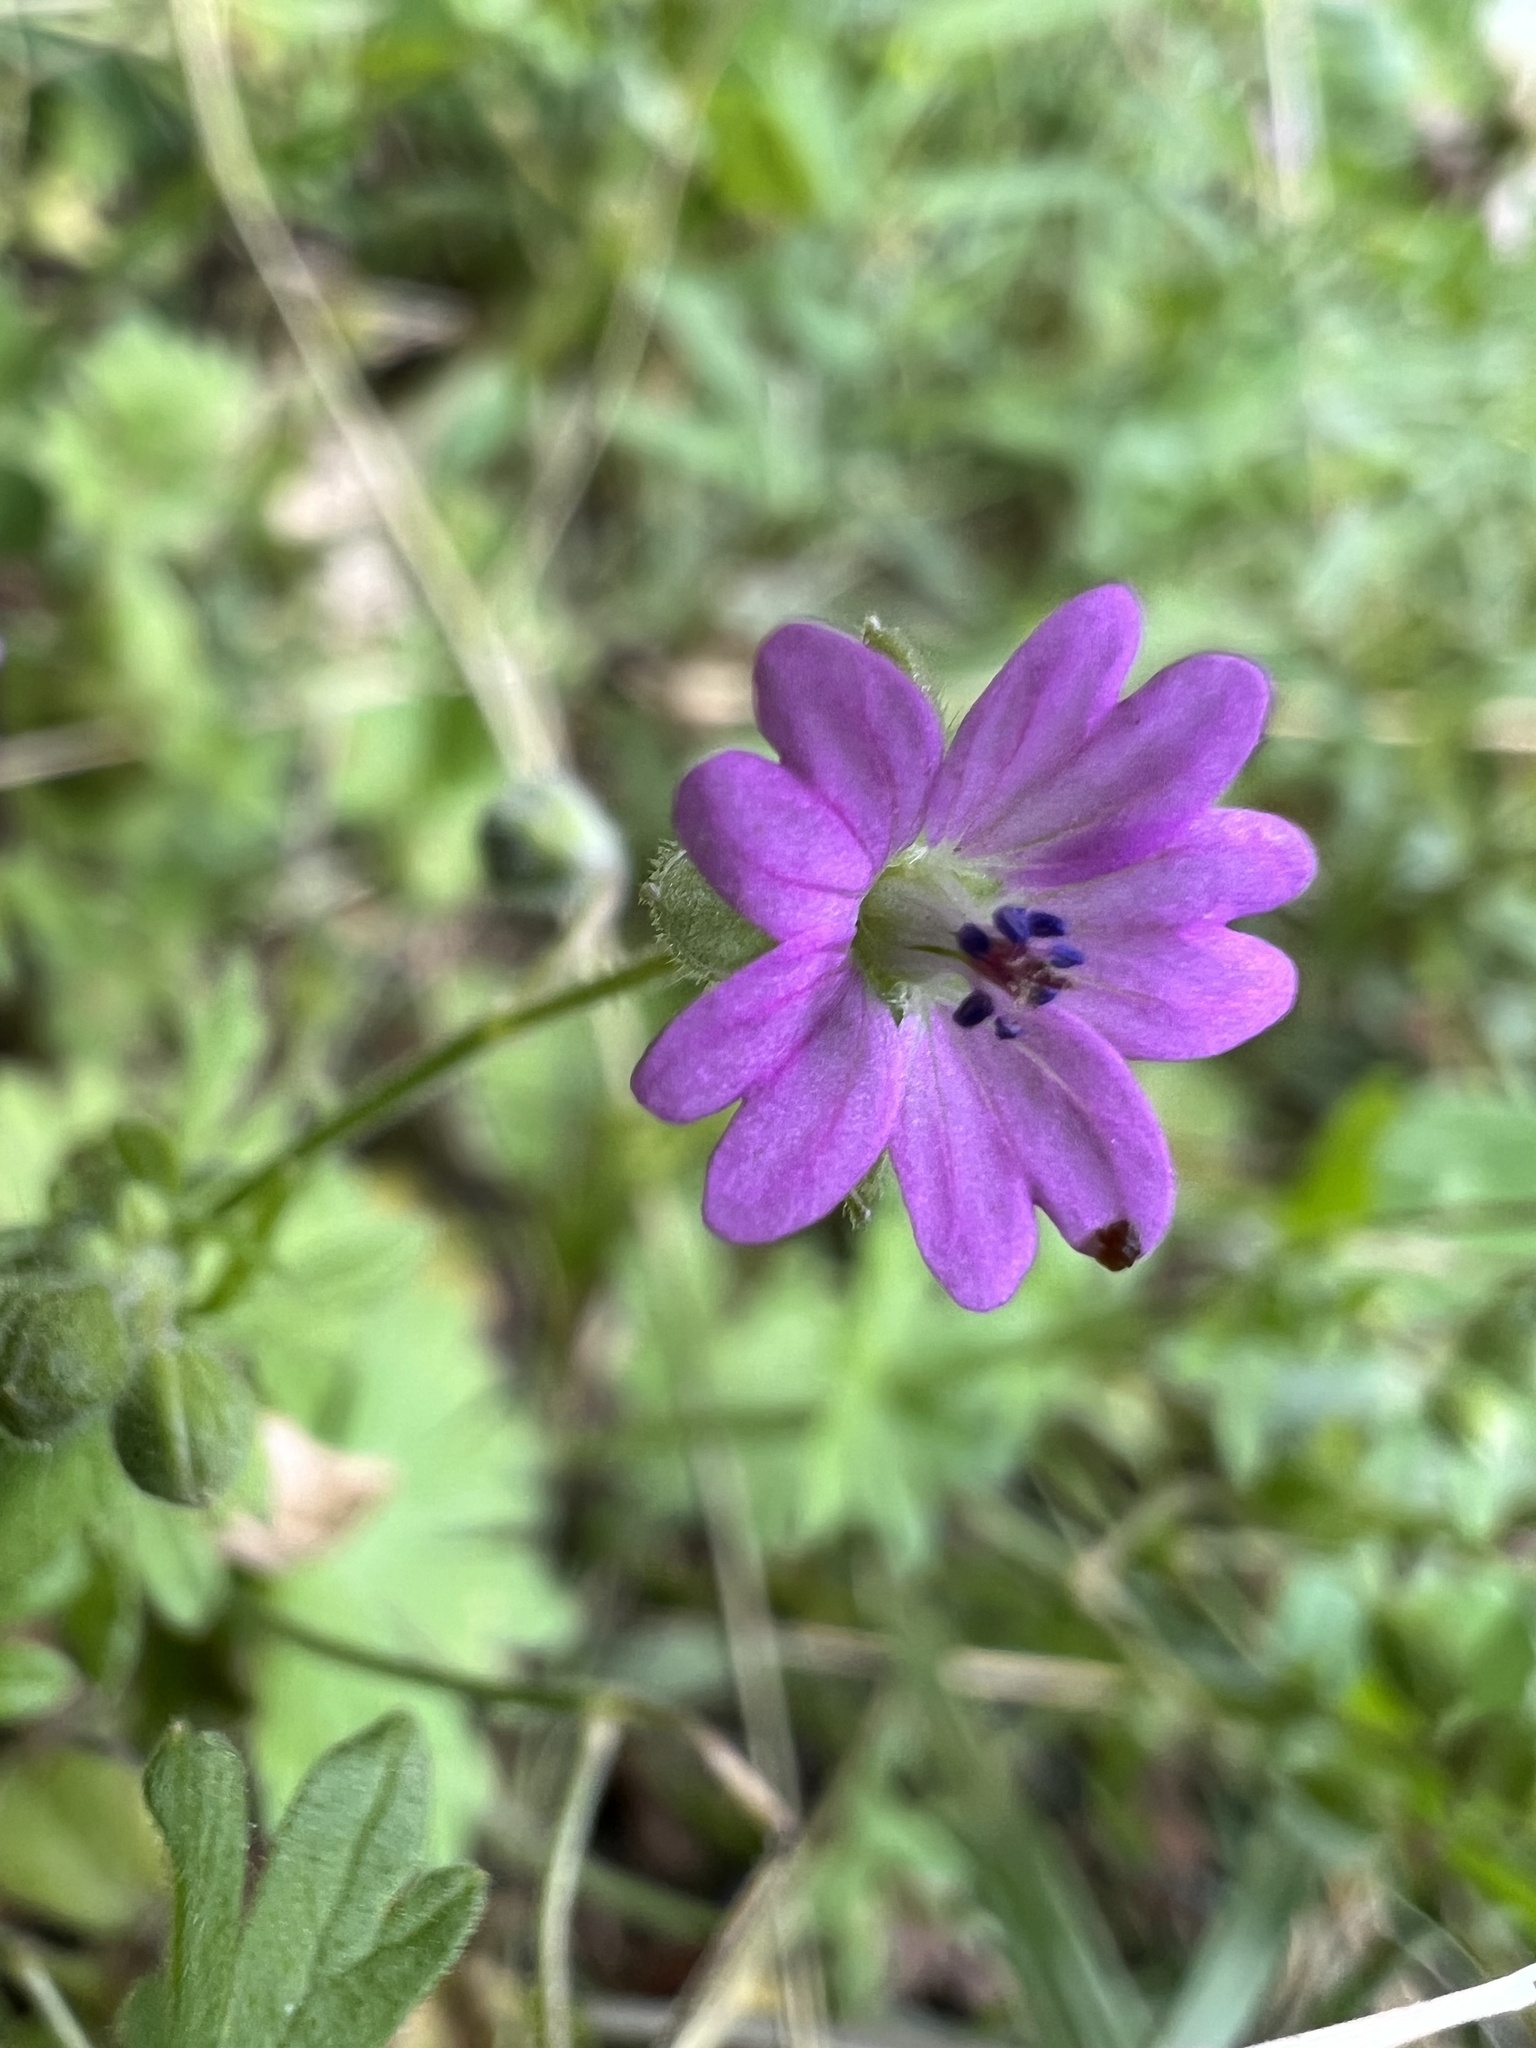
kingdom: Plantae
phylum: Tracheophyta
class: Magnoliopsida
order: Geraniales
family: Geraniaceae
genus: Geranium
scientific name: Geranium molle
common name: Dove's-foot crane's-bill
